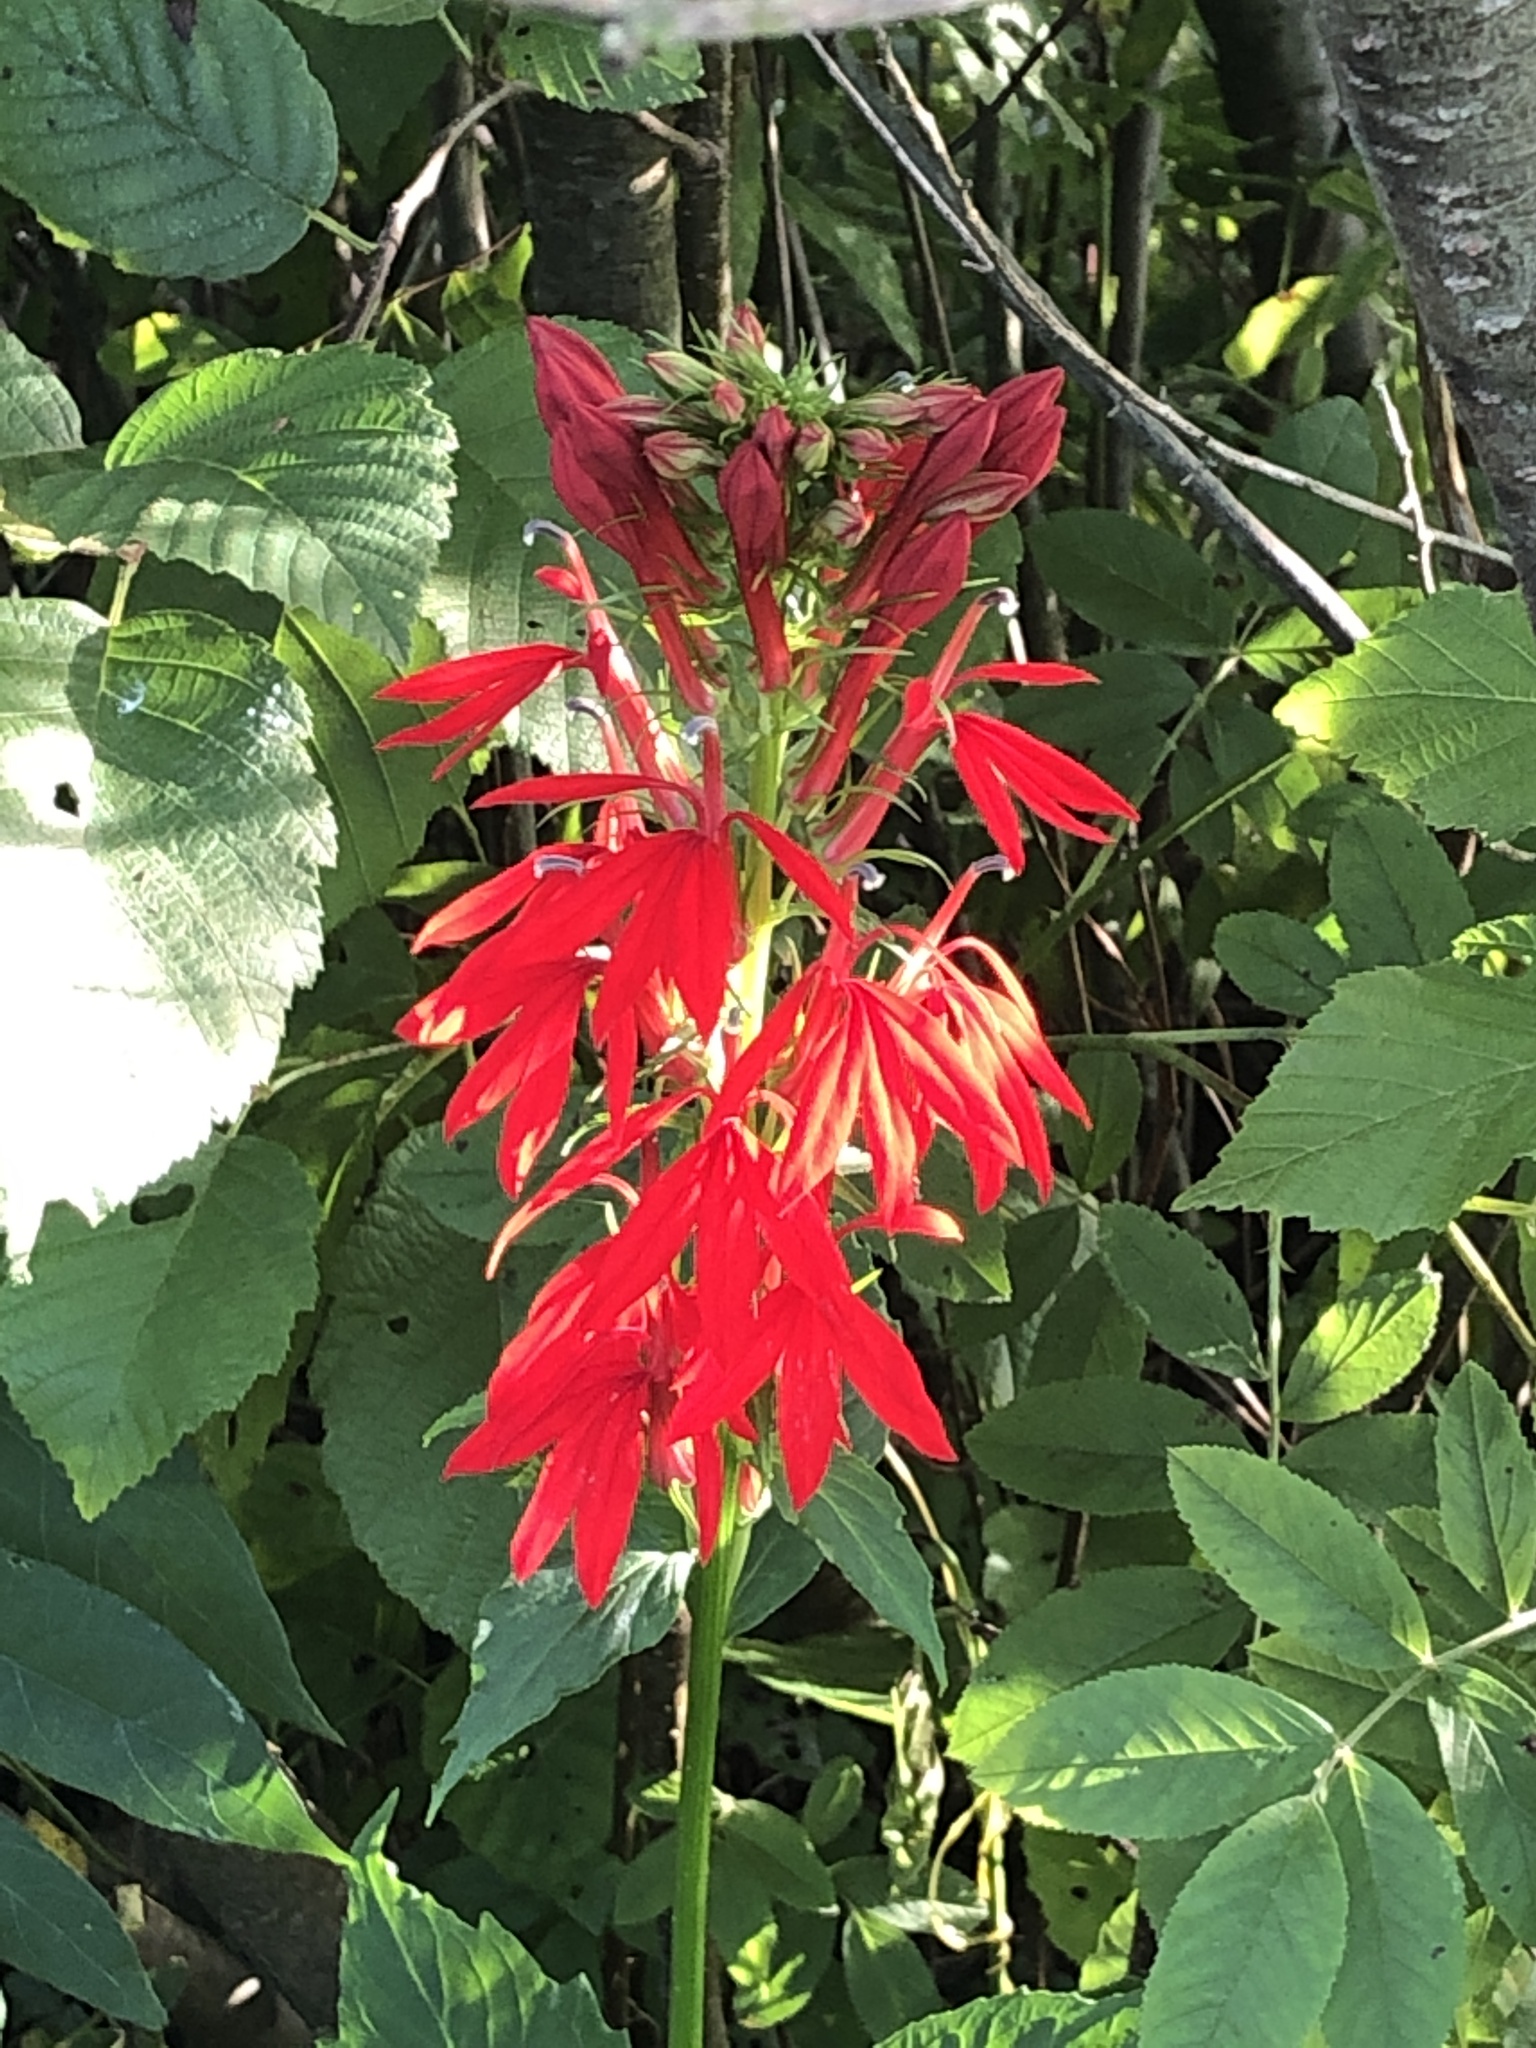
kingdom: Plantae
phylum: Tracheophyta
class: Magnoliopsida
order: Asterales
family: Campanulaceae
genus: Lobelia
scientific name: Lobelia cardinalis
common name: Cardinal flower
